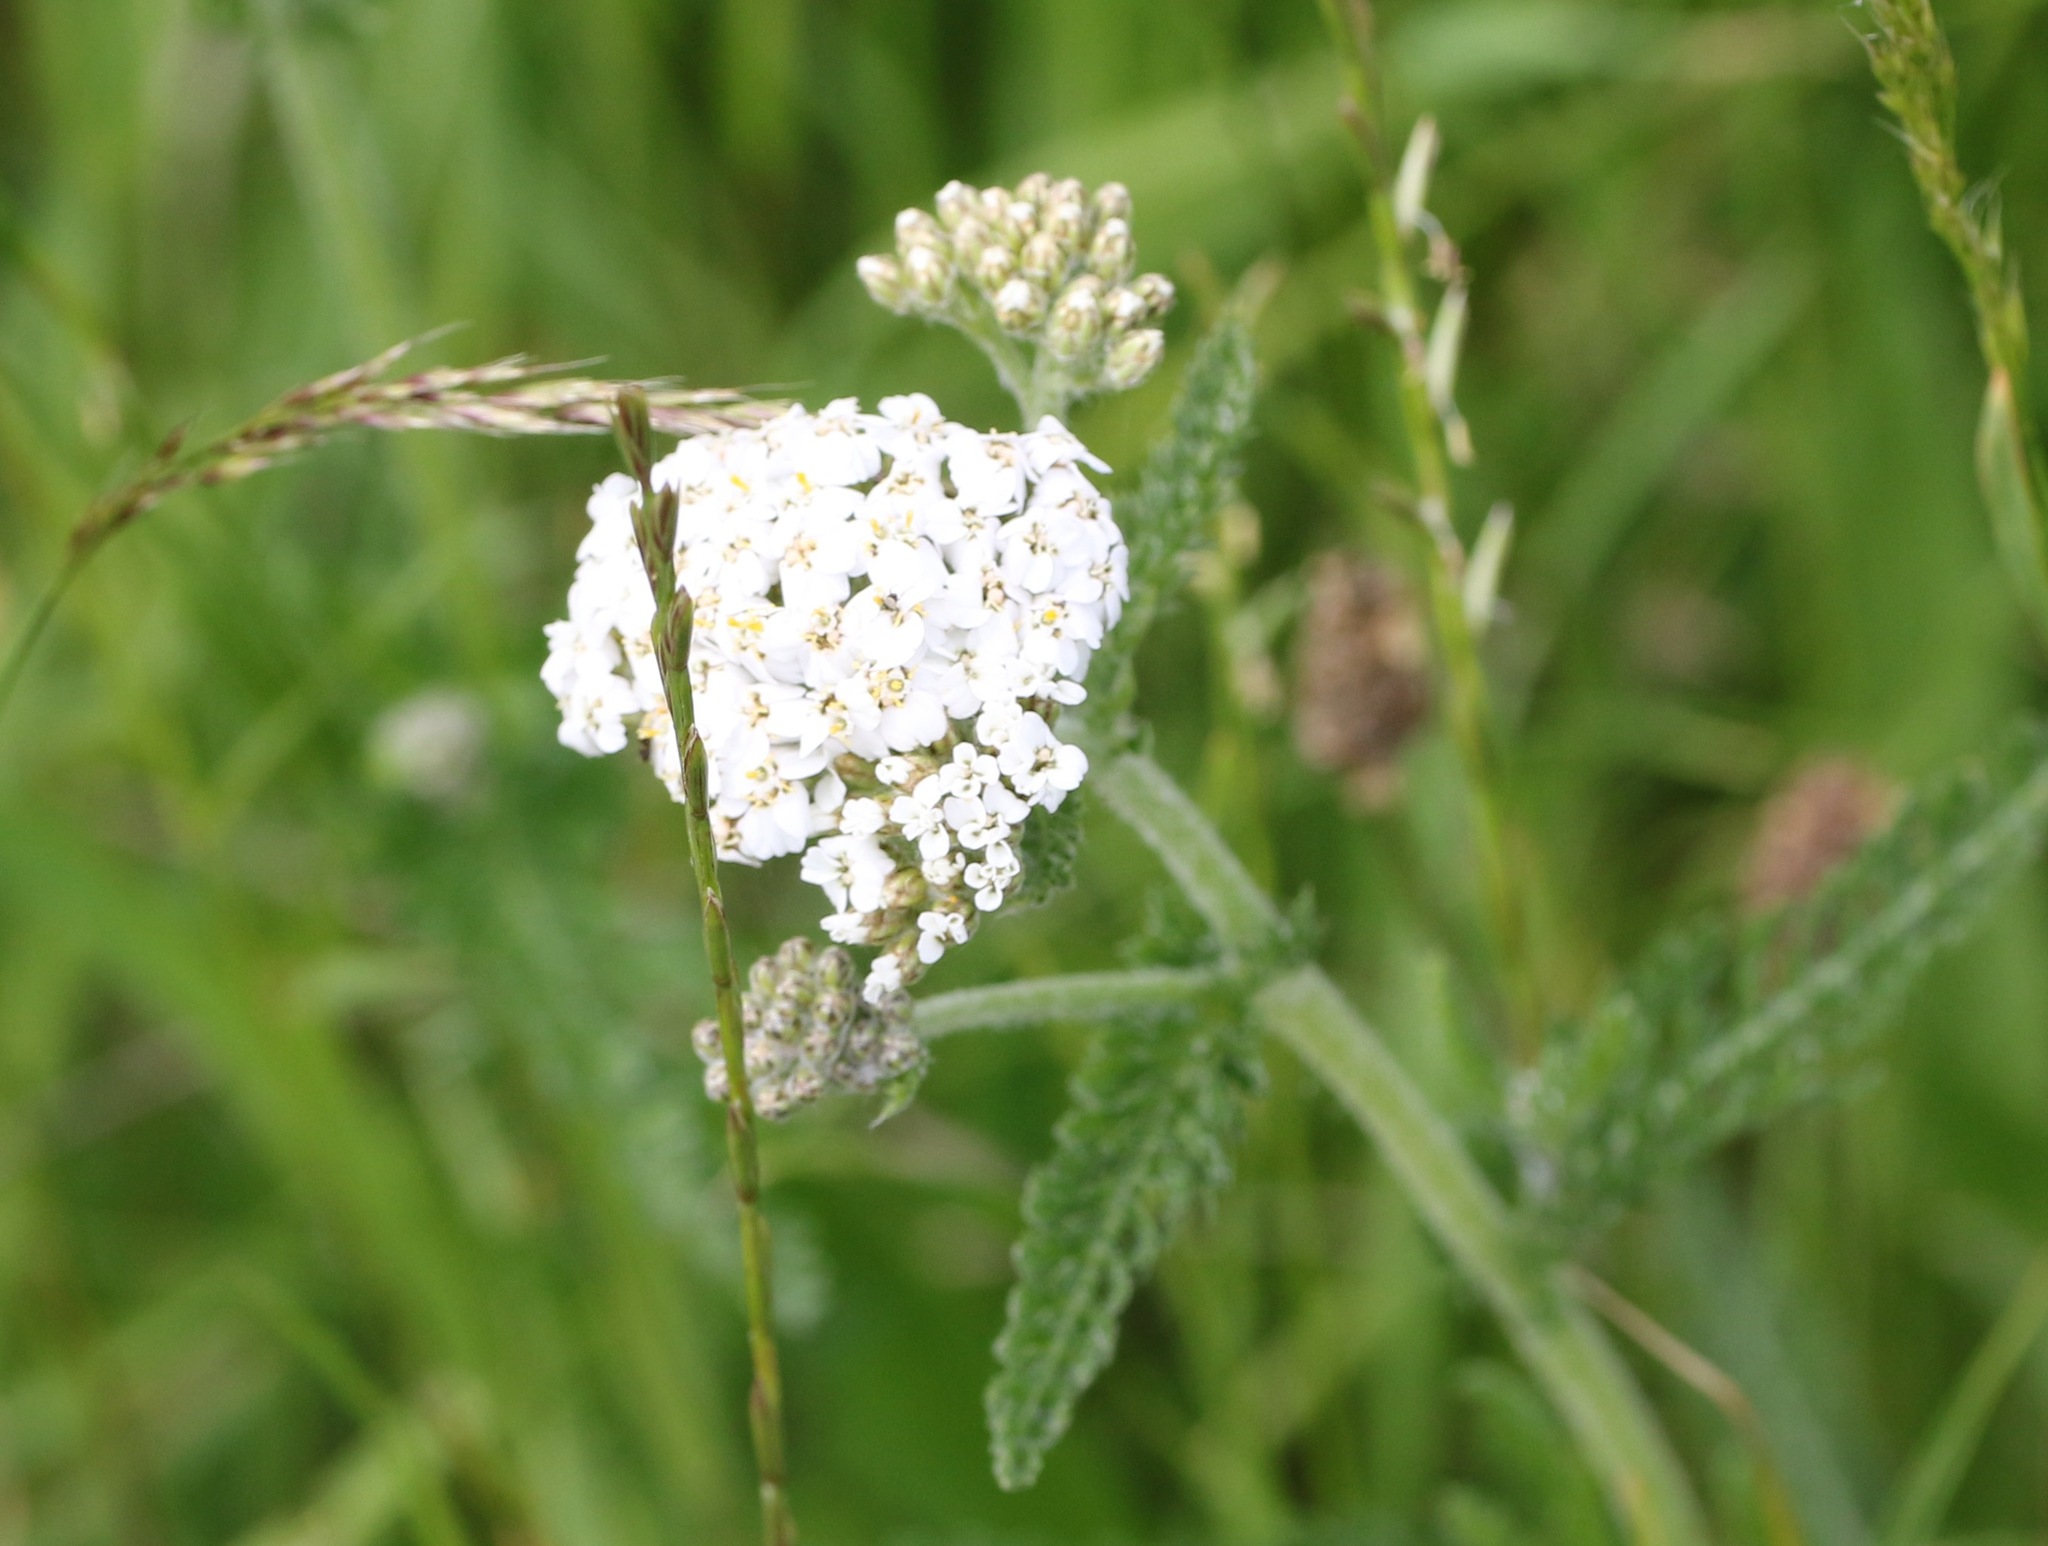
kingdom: Plantae
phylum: Tracheophyta
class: Magnoliopsida
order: Asterales
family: Asteraceae
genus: Achillea
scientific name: Achillea millefolium
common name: Yarrow
